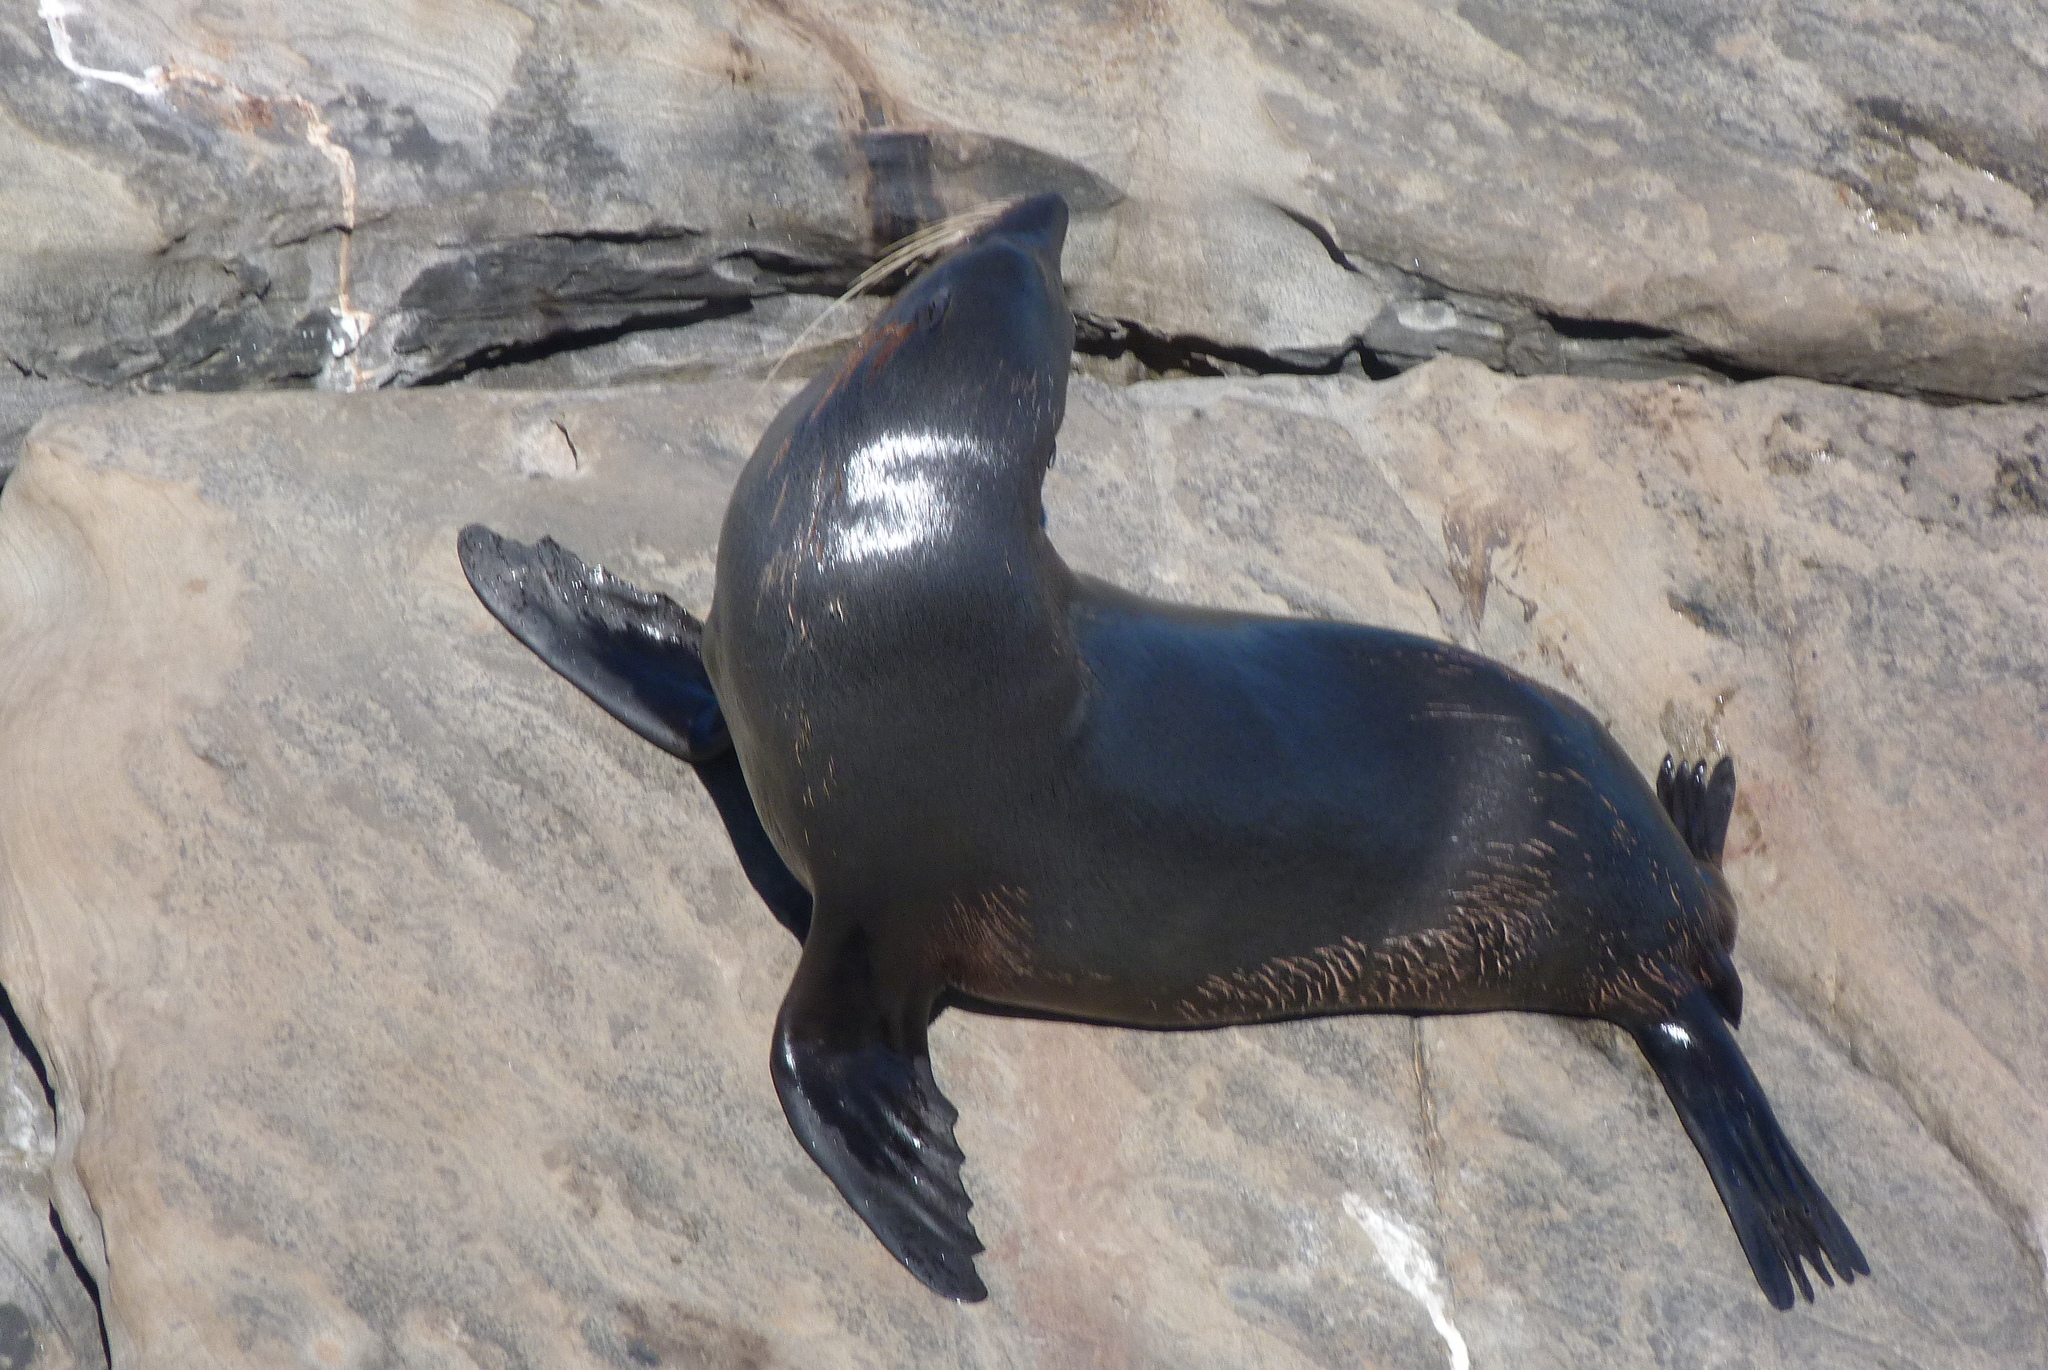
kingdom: Animalia
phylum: Chordata
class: Mammalia
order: Carnivora
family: Otariidae
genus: Arctocephalus
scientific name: Arctocephalus forsteri
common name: New zealand fur seal
